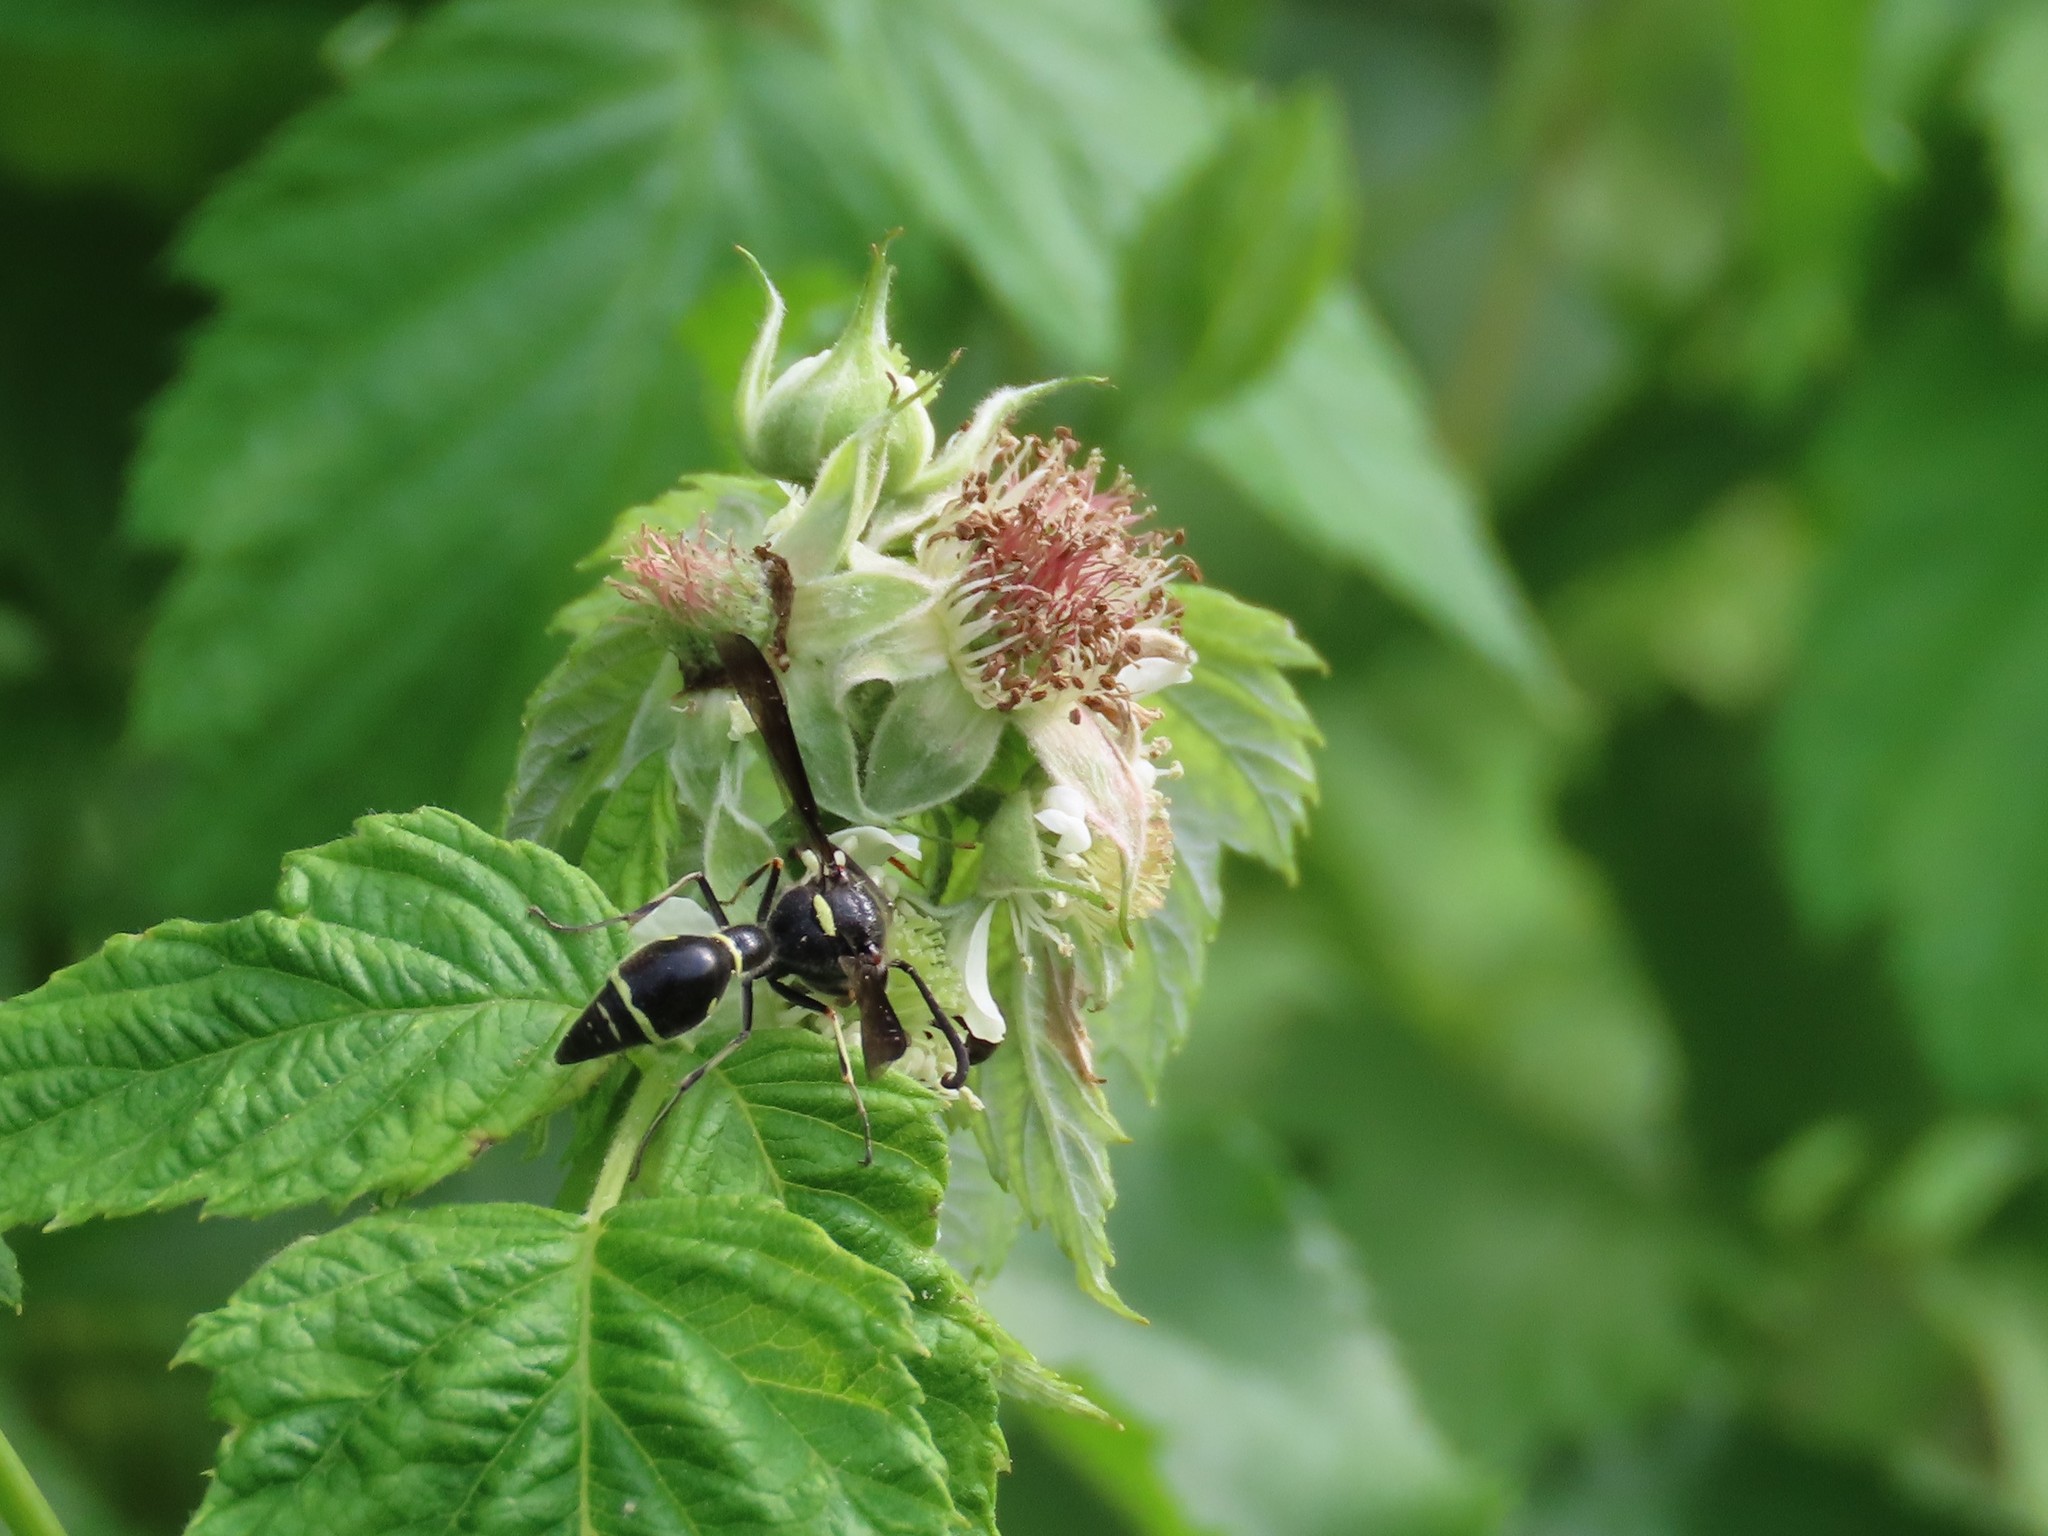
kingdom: Animalia
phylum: Arthropoda
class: Insecta
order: Hymenoptera
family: Vespidae
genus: Eumenes
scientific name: Eumenes fraternus
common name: Fraternal potter wasp
